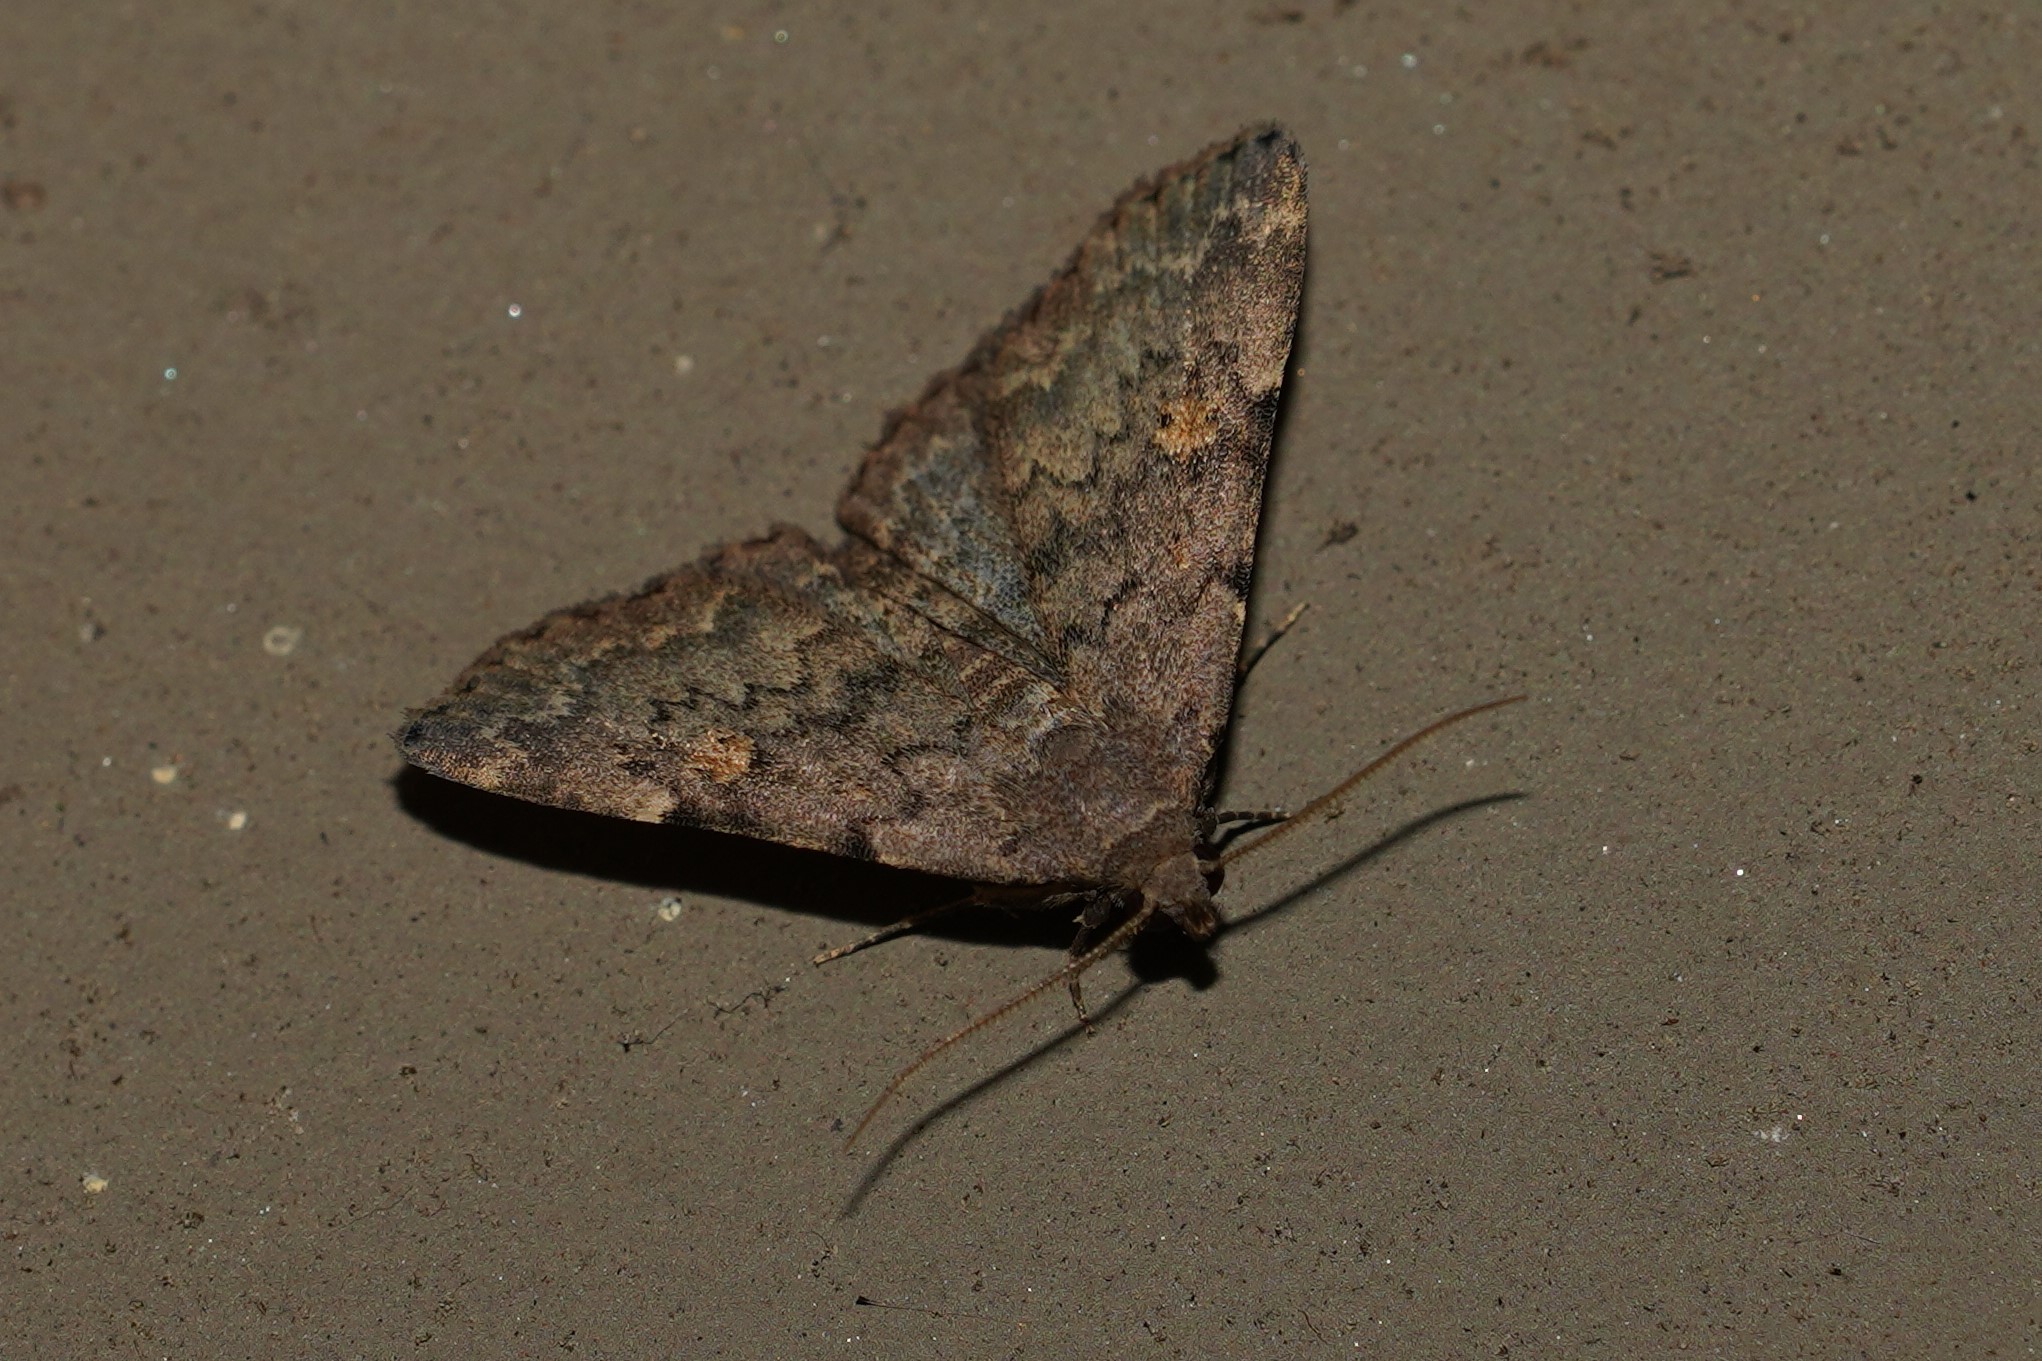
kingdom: Animalia
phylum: Arthropoda
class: Insecta
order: Lepidoptera
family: Erebidae
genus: Idia
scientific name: Idia aemula
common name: Common idia moth
